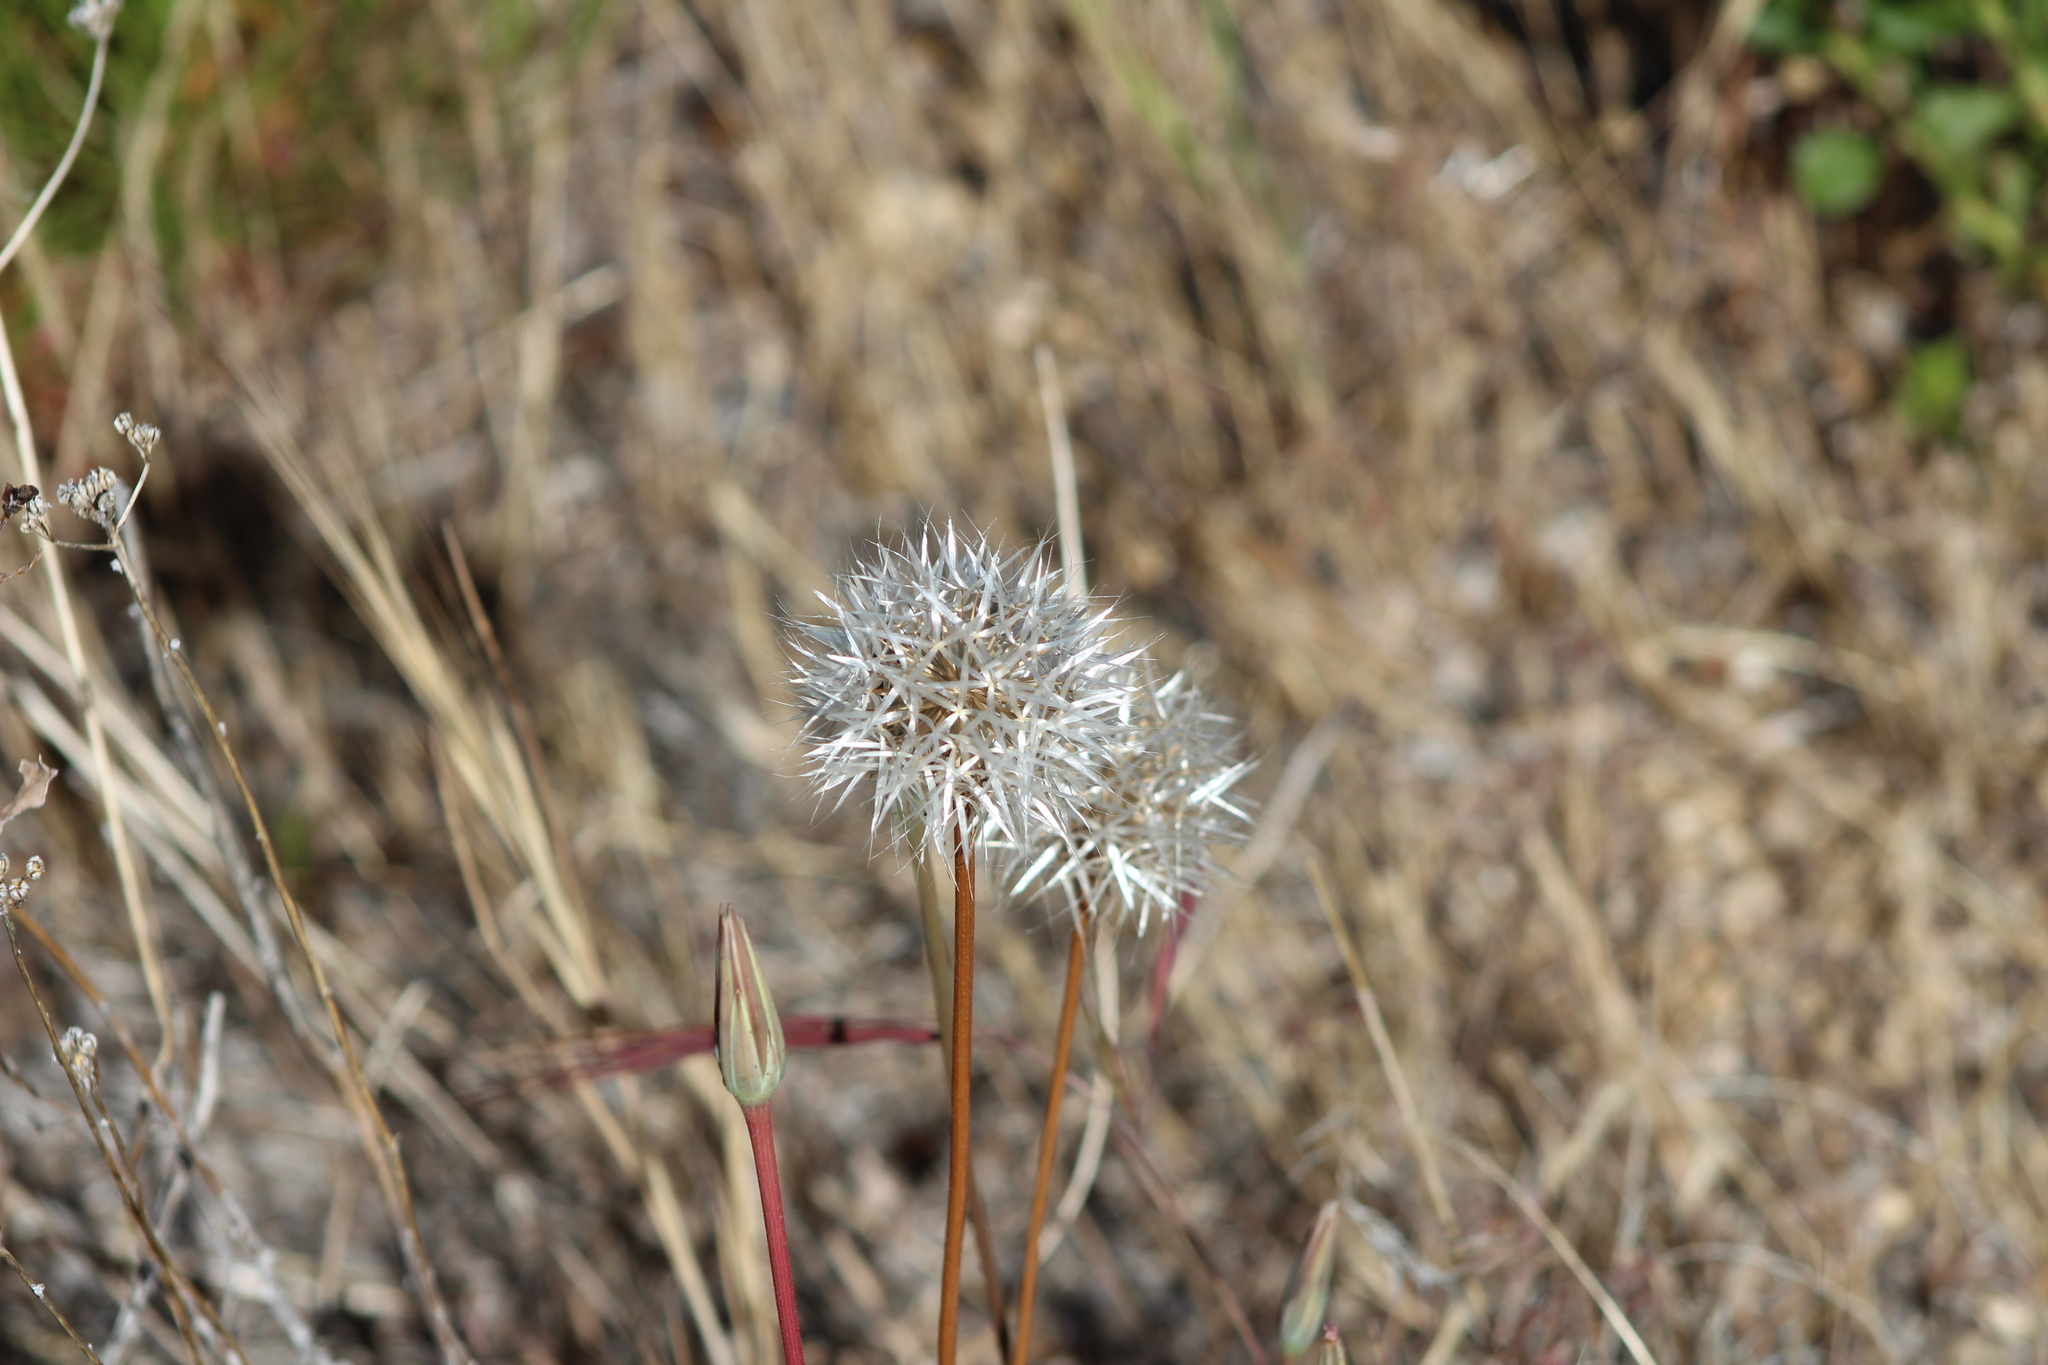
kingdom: Plantae
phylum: Tracheophyta
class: Magnoliopsida
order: Asterales
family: Asteraceae
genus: Microseris
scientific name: Microseris lindleyi
